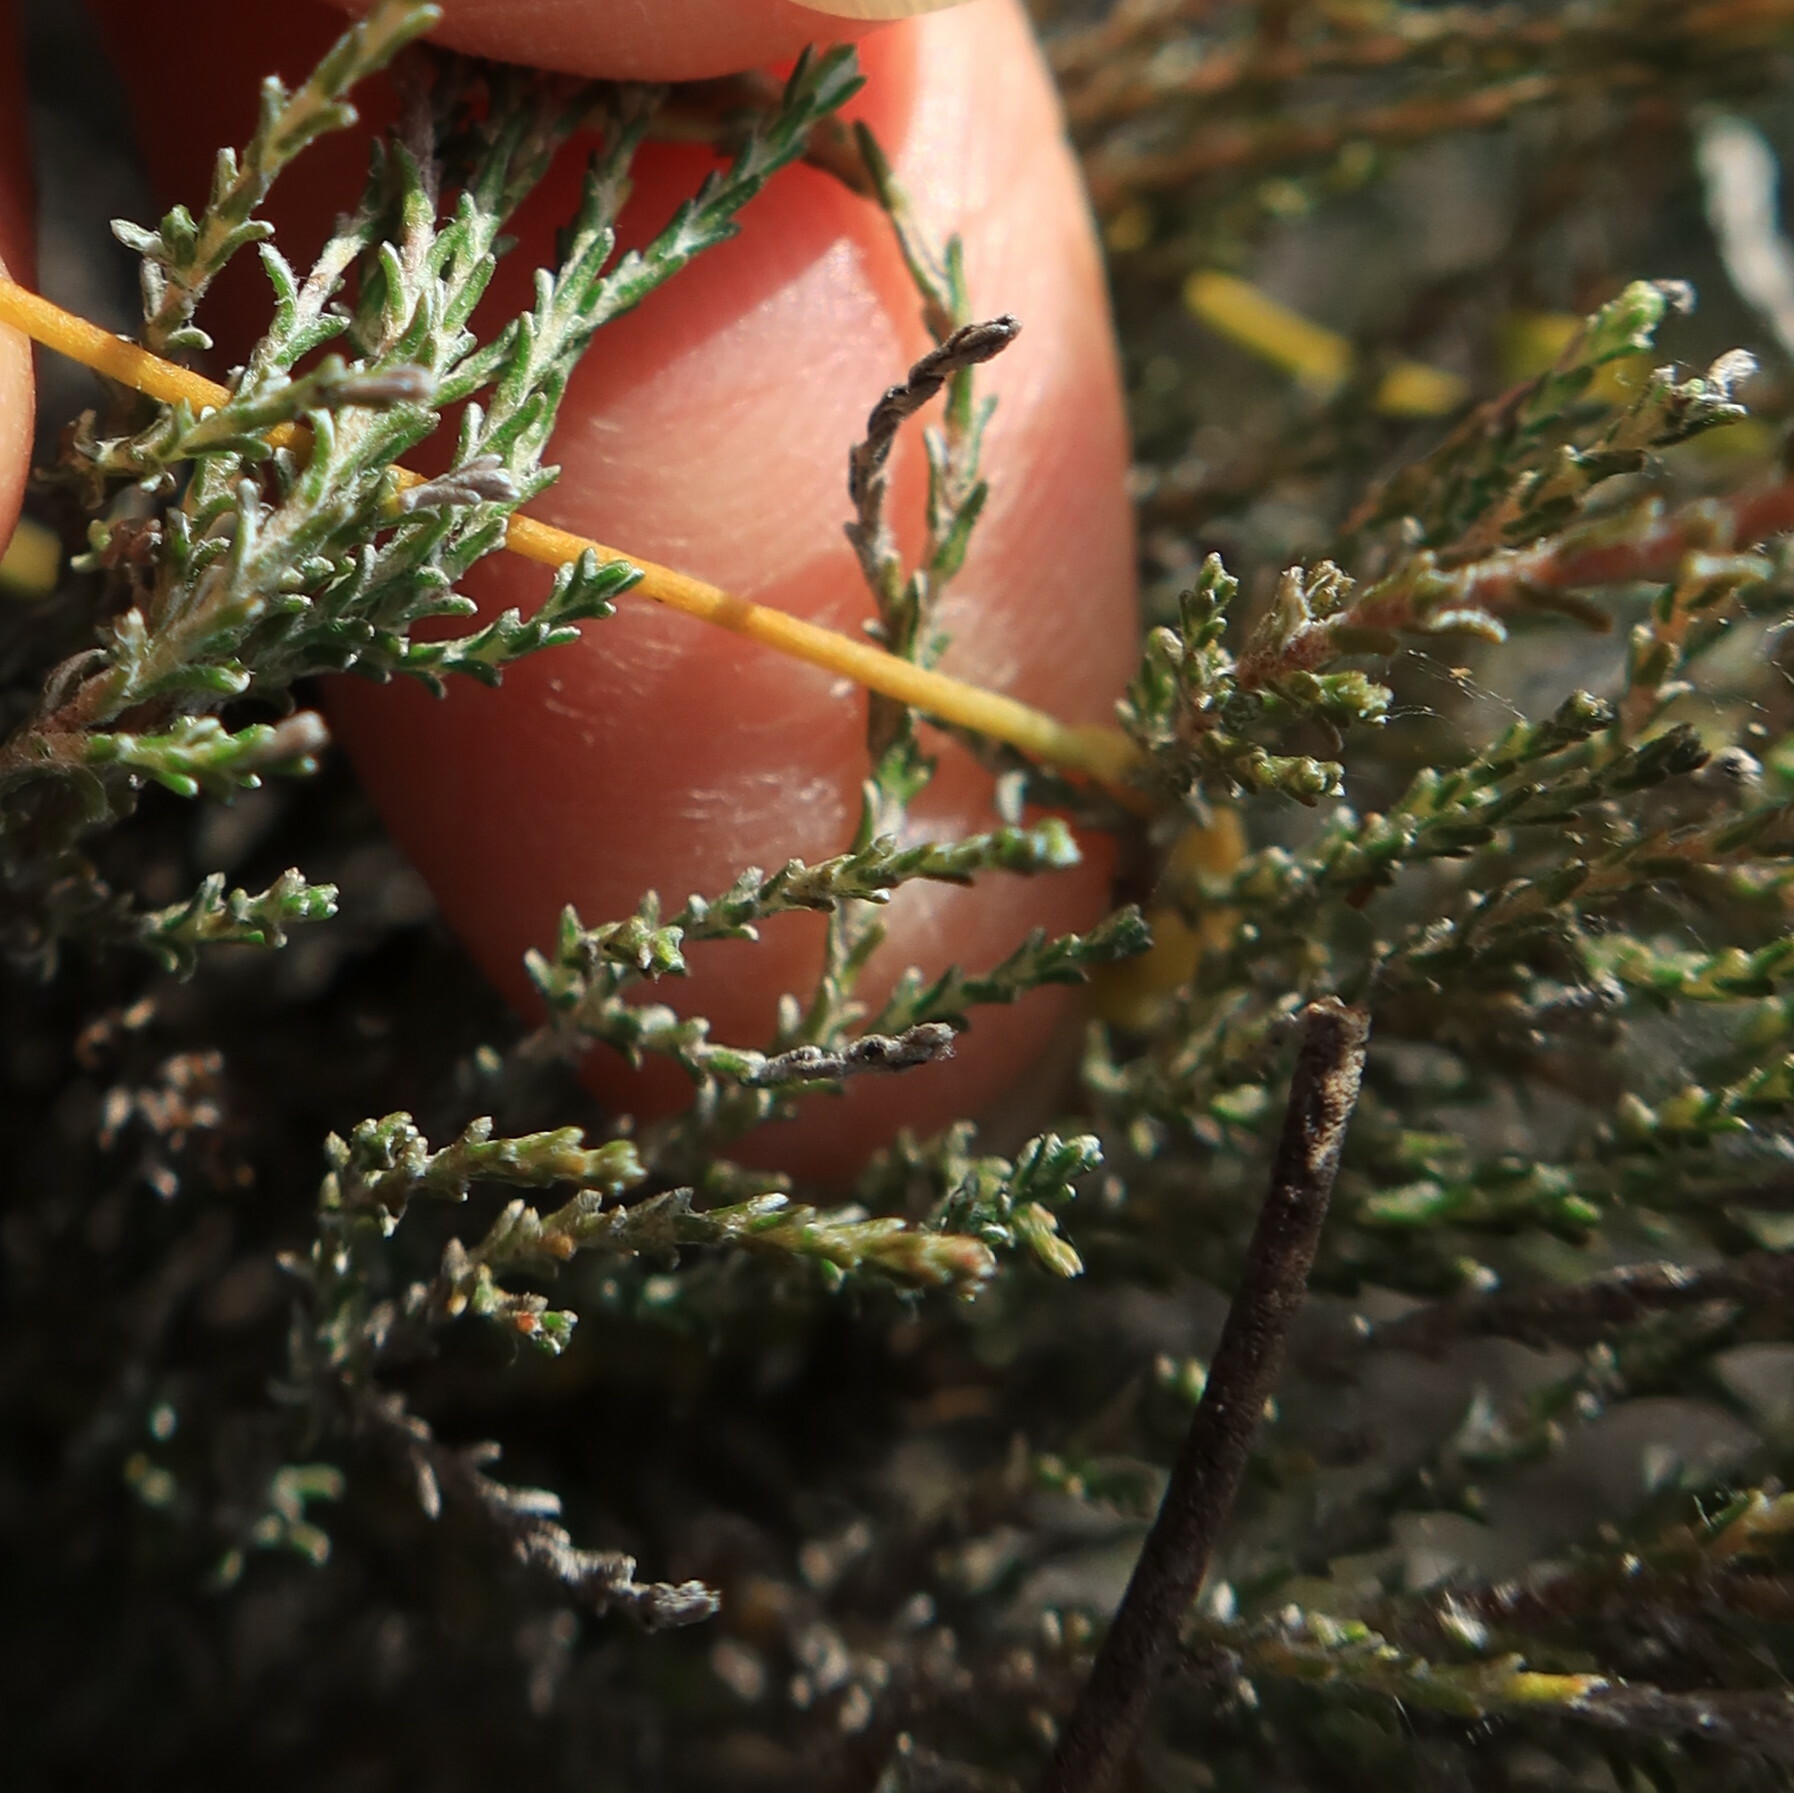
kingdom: Plantae
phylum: Tracheophyta
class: Magnoliopsida
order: Asterales
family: Asteraceae
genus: Stoebe
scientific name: Stoebe fusca
